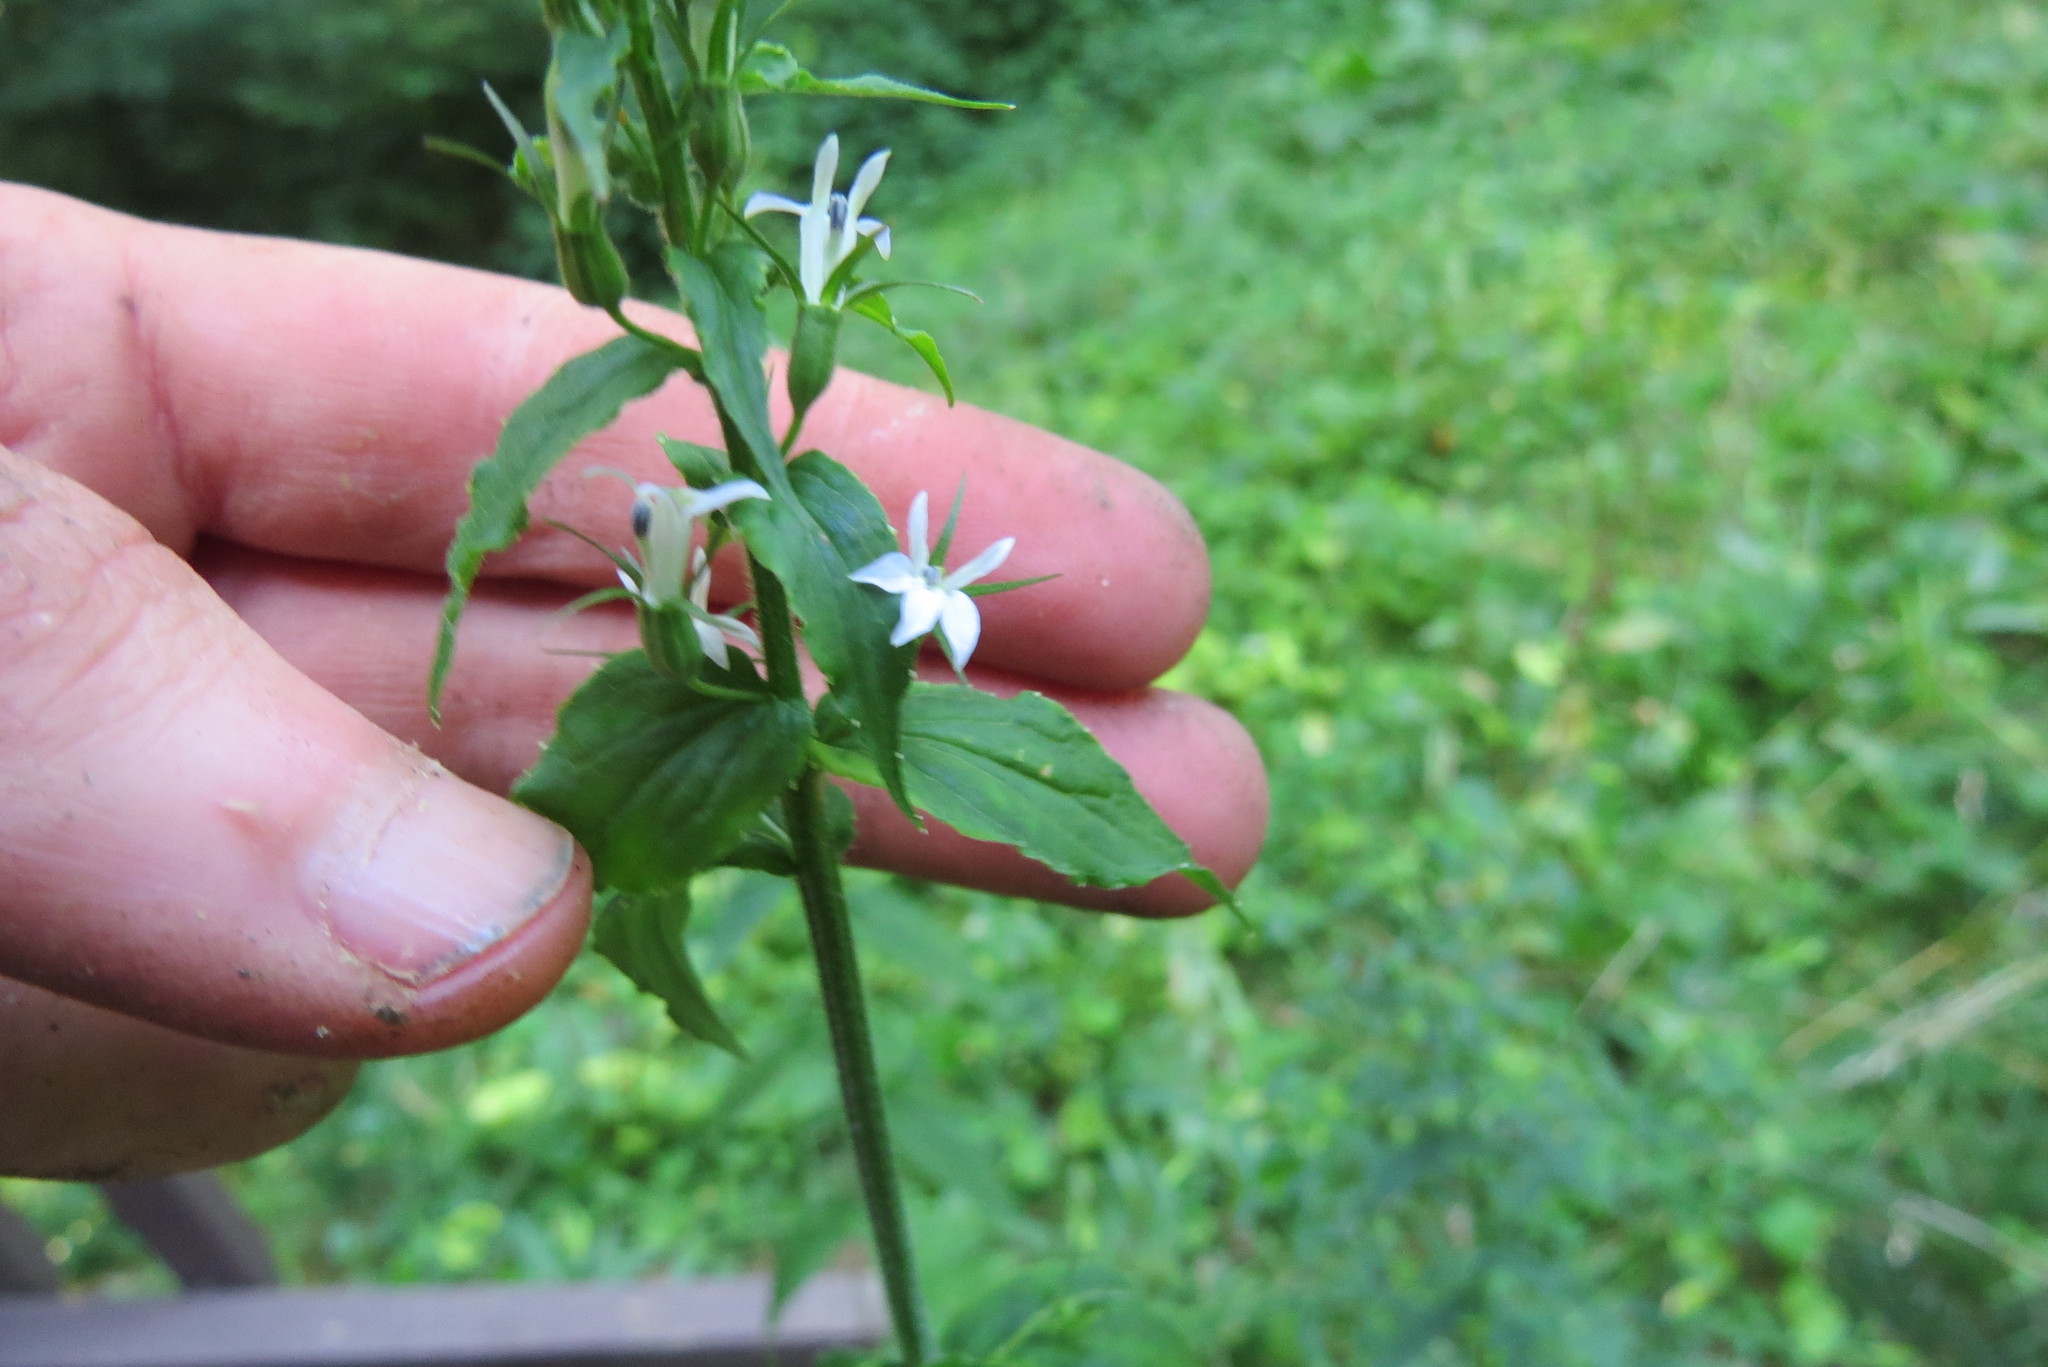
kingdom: Plantae
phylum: Tracheophyta
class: Magnoliopsida
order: Asterales
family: Campanulaceae
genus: Lobelia
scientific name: Lobelia inflata
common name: Indian tobacco
